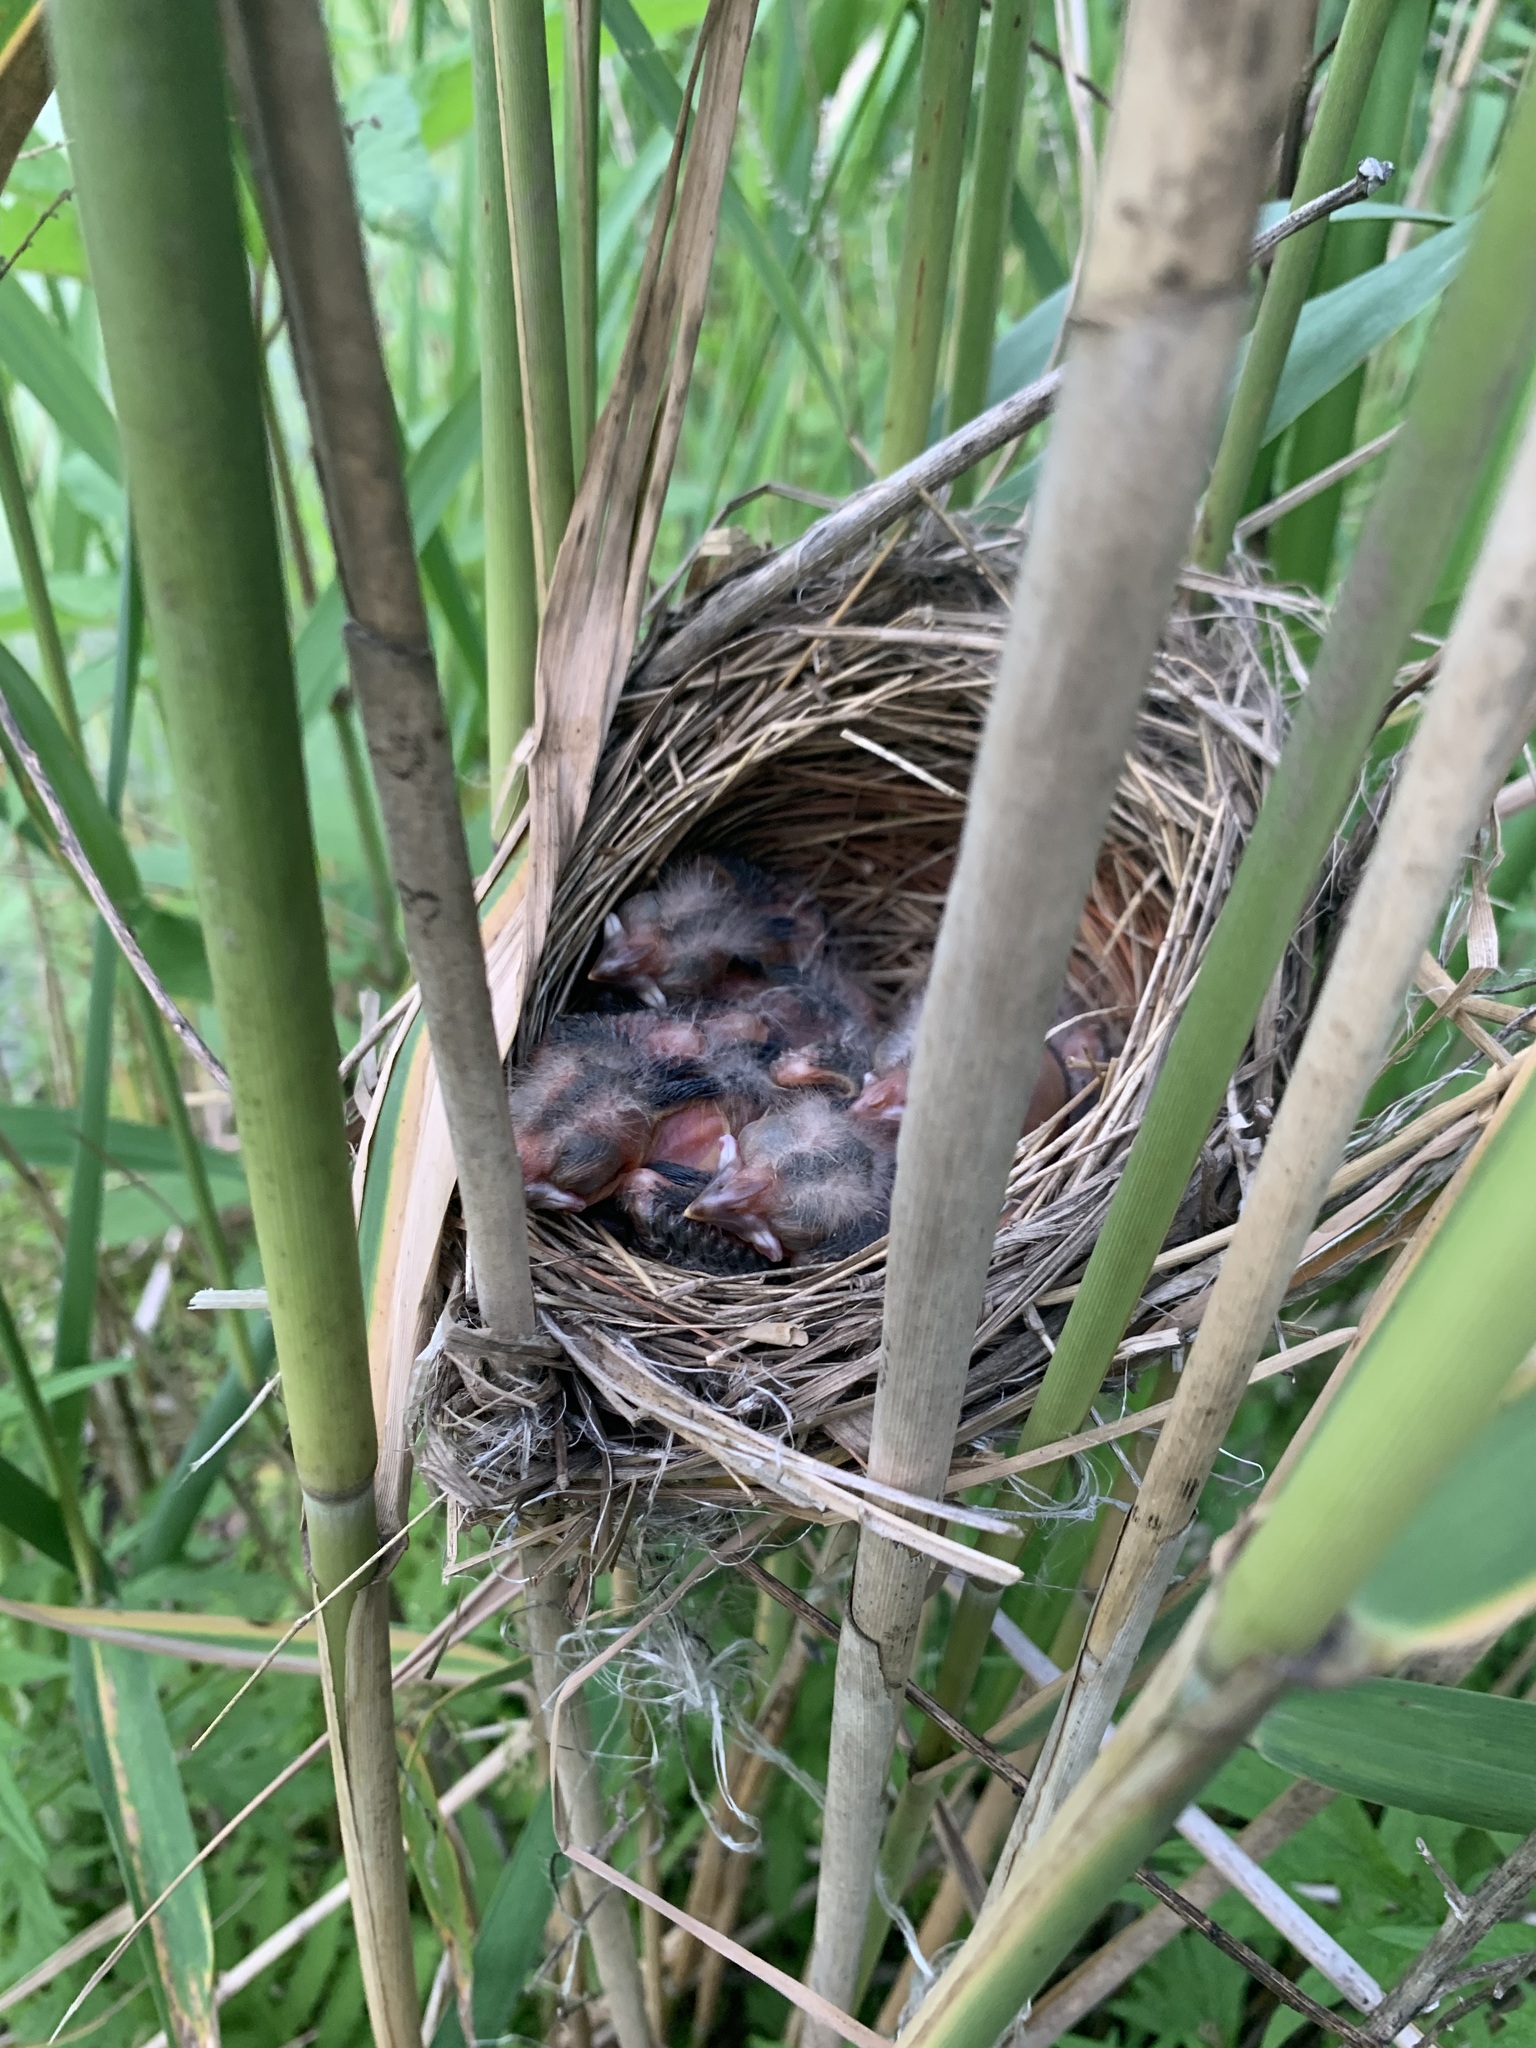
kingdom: Animalia
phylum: Chordata
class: Aves
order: Passeriformes
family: Icteridae
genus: Agelaius
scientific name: Agelaius phoeniceus
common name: Red-winged blackbird
